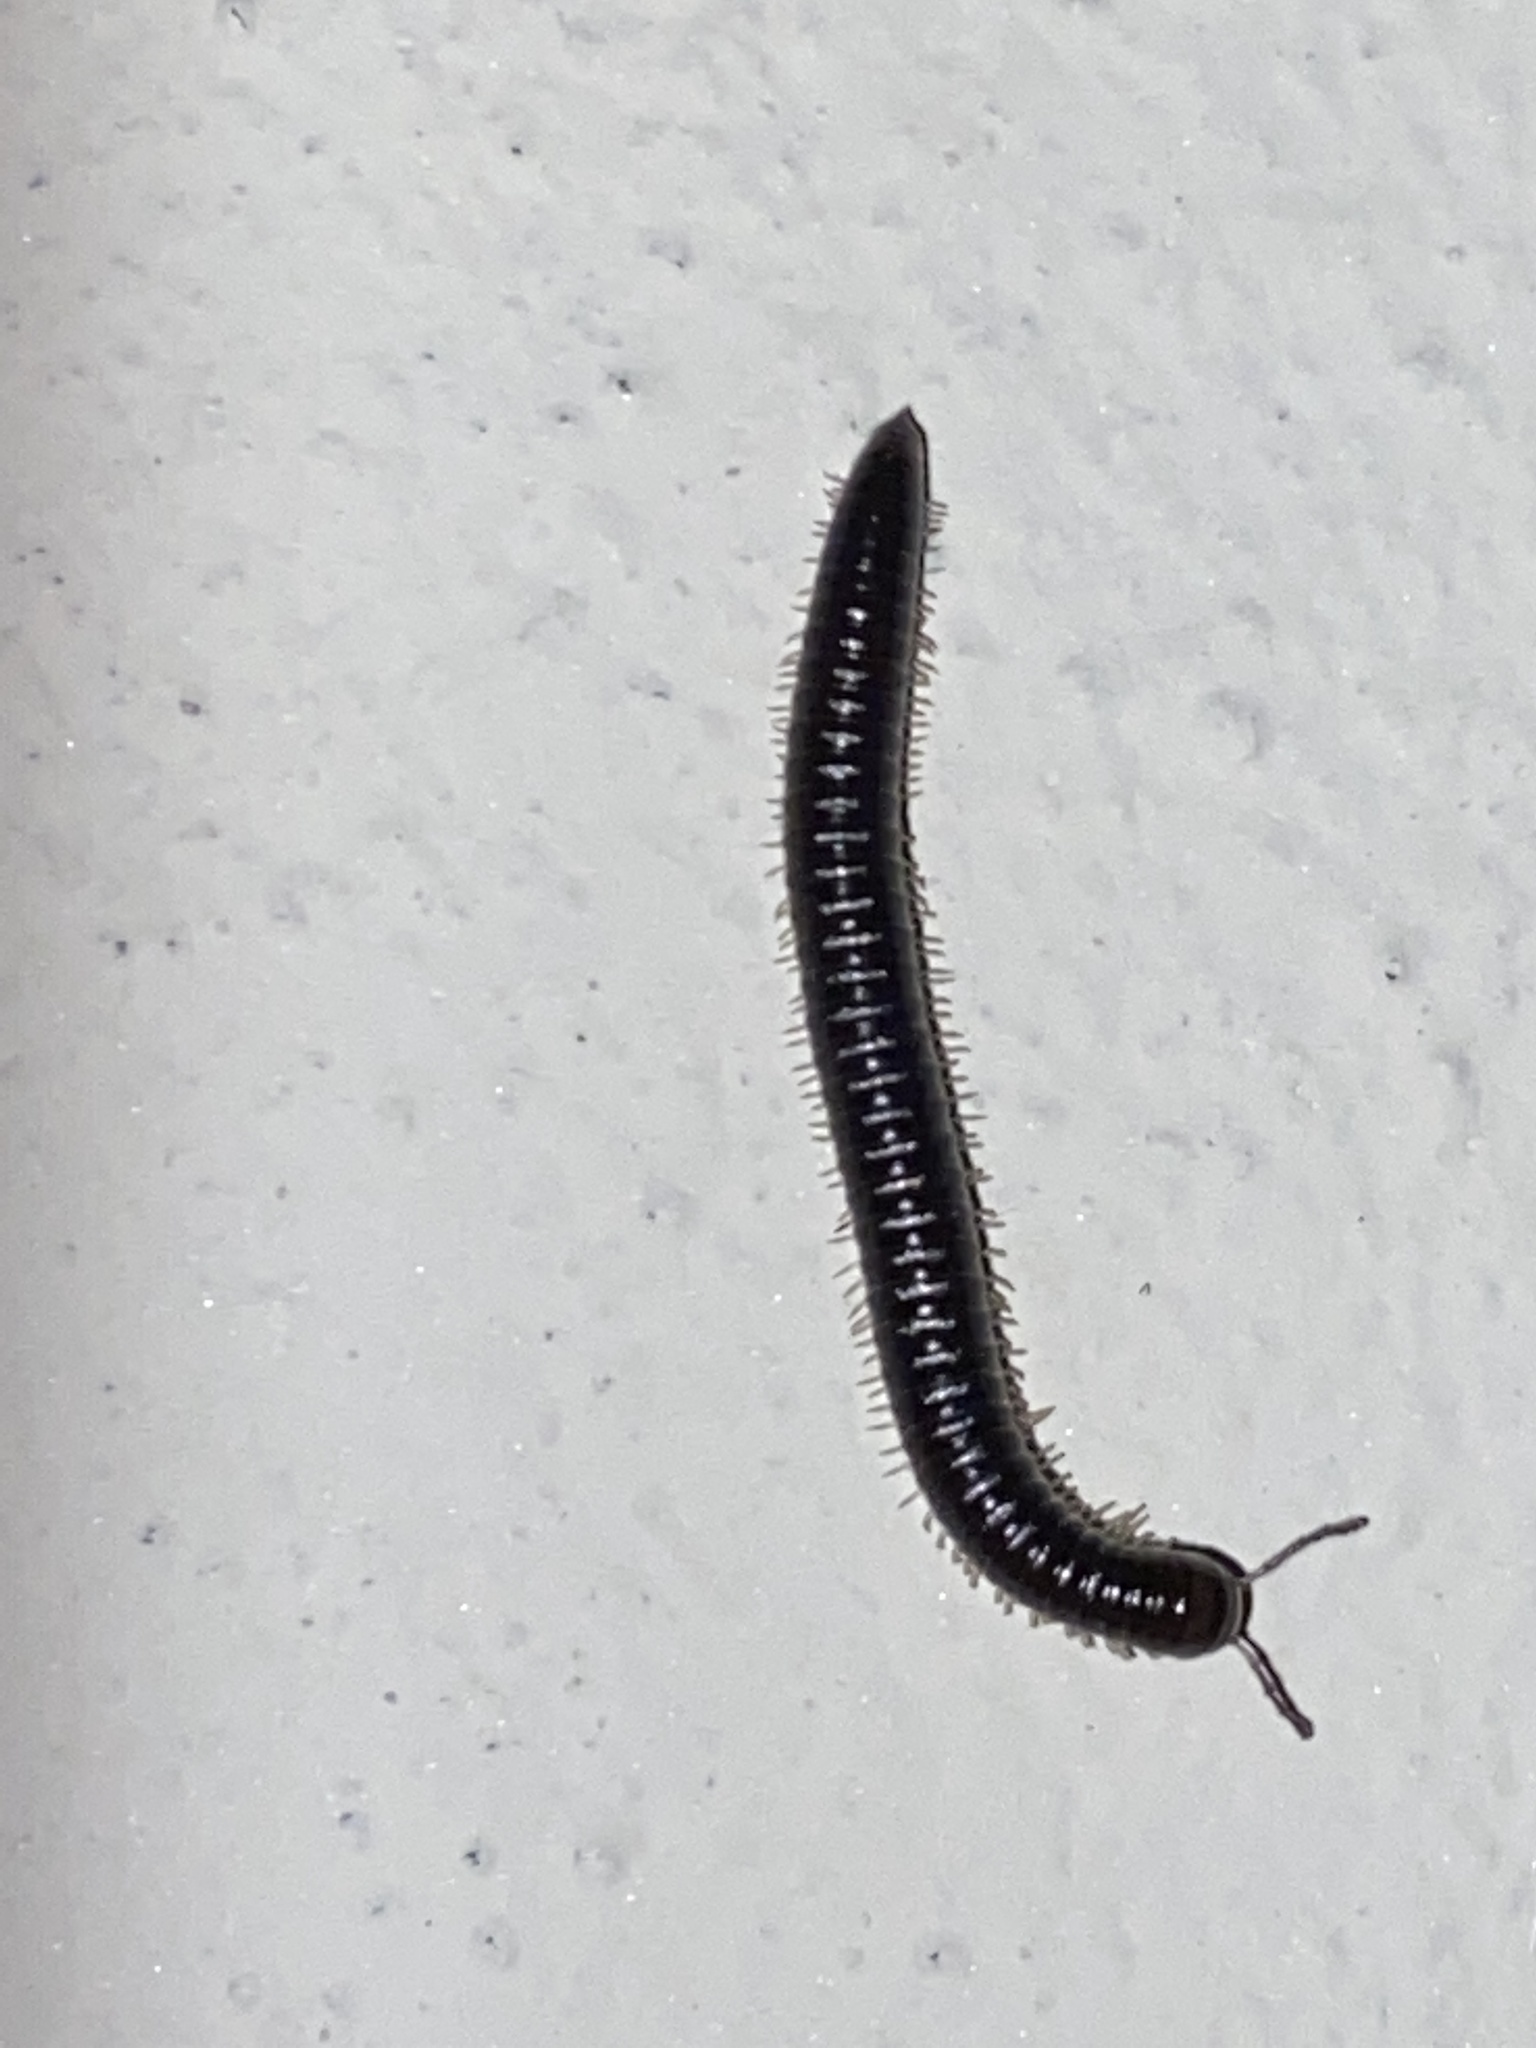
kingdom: Animalia
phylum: Arthropoda
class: Diplopoda
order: Julida
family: Julidae
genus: Tachypodoiulus
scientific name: Tachypodoiulus niger
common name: White-legged snake millipede
